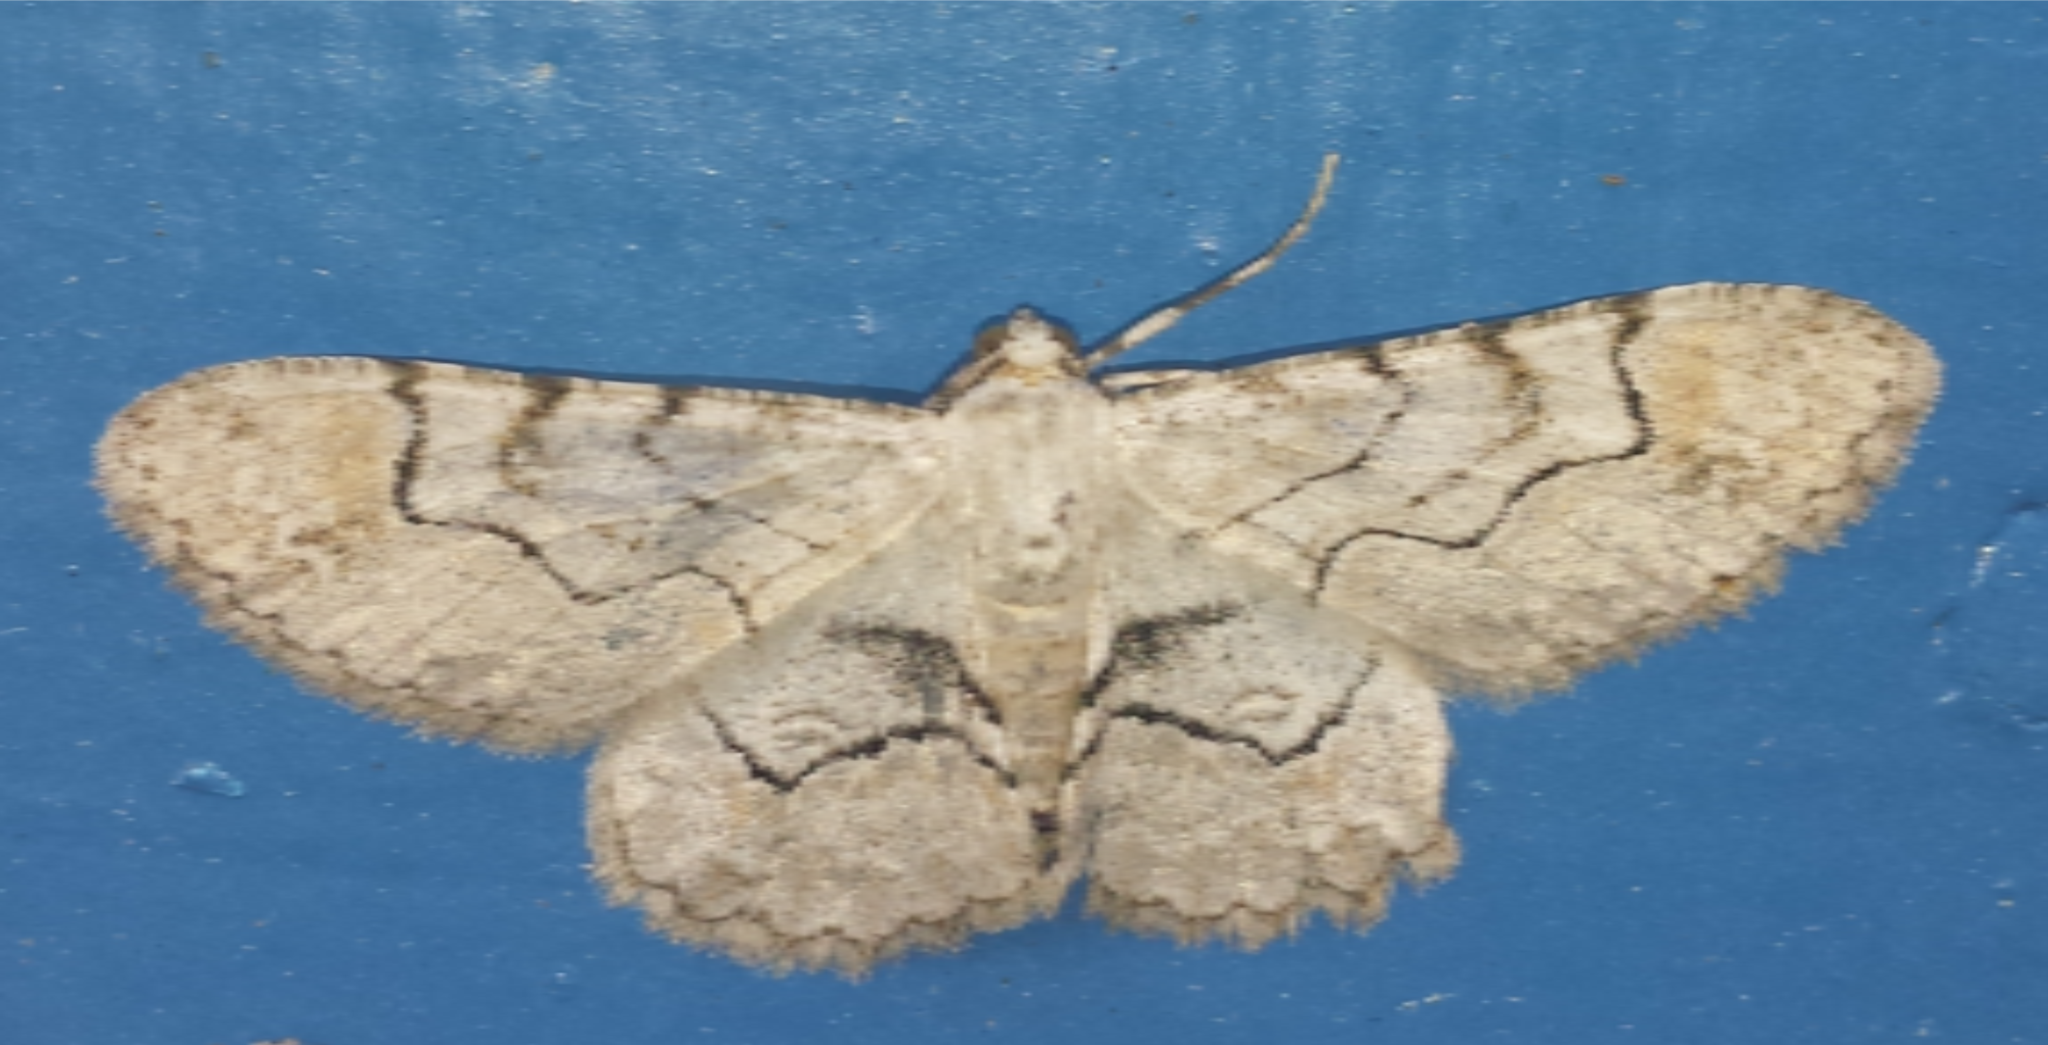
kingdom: Animalia
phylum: Arthropoda
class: Insecta
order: Lepidoptera
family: Geometridae
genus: Iridopsis
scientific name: Iridopsis larvaria
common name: Bent-line gray
